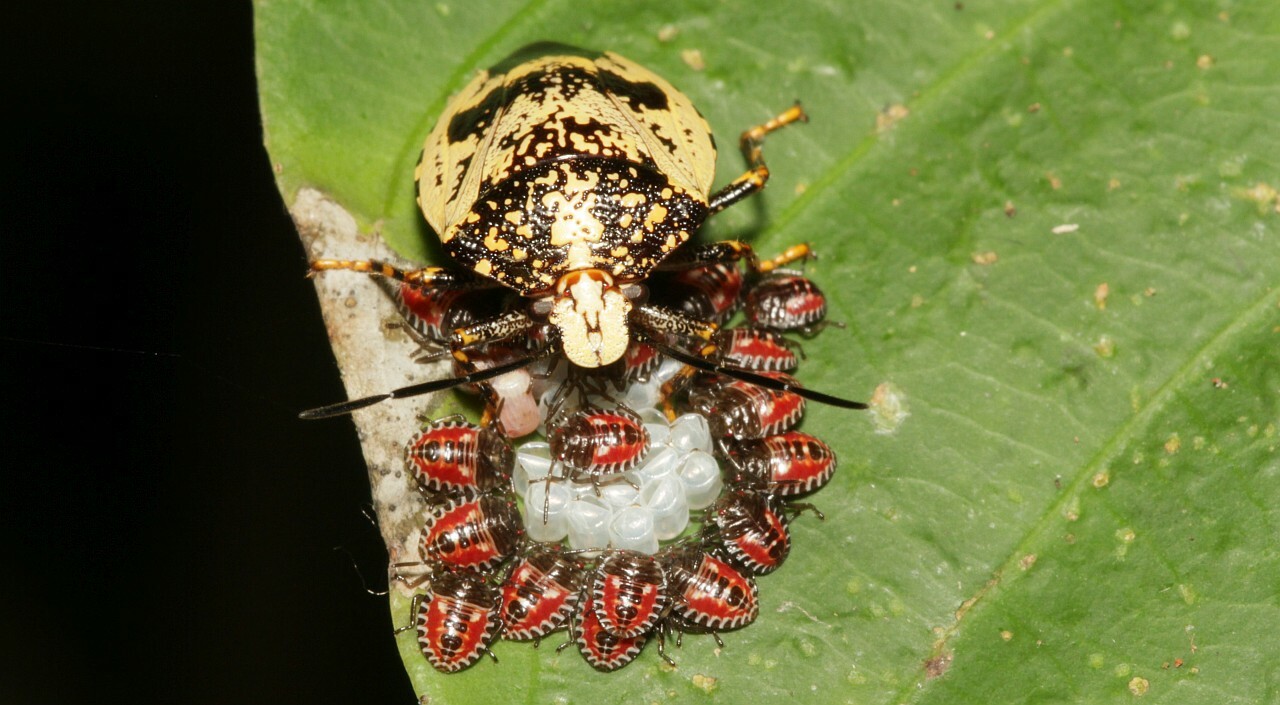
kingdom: Animalia
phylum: Arthropoda
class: Insecta
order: Hemiptera
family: Pentatomidae
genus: Platynopus
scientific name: Platynopus melanoleucus
